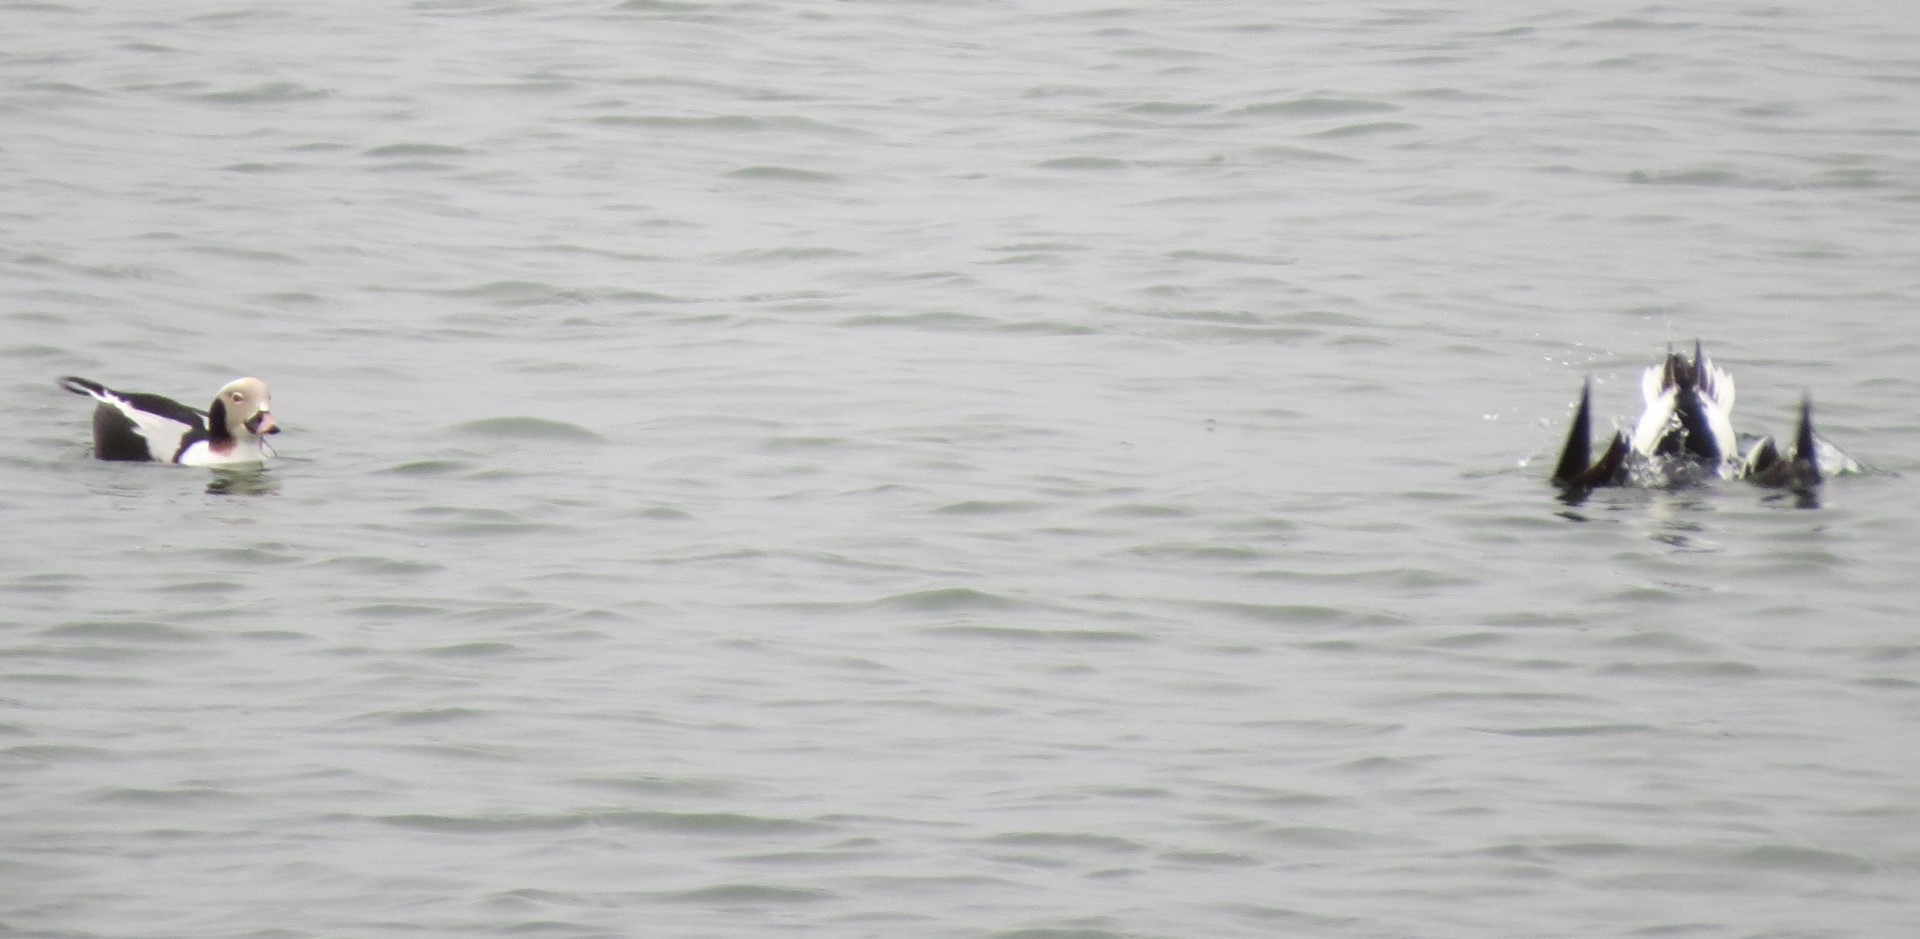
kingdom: Animalia
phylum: Chordata
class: Aves
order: Anseriformes
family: Anatidae
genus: Clangula
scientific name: Clangula hyemalis
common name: Long-tailed duck
